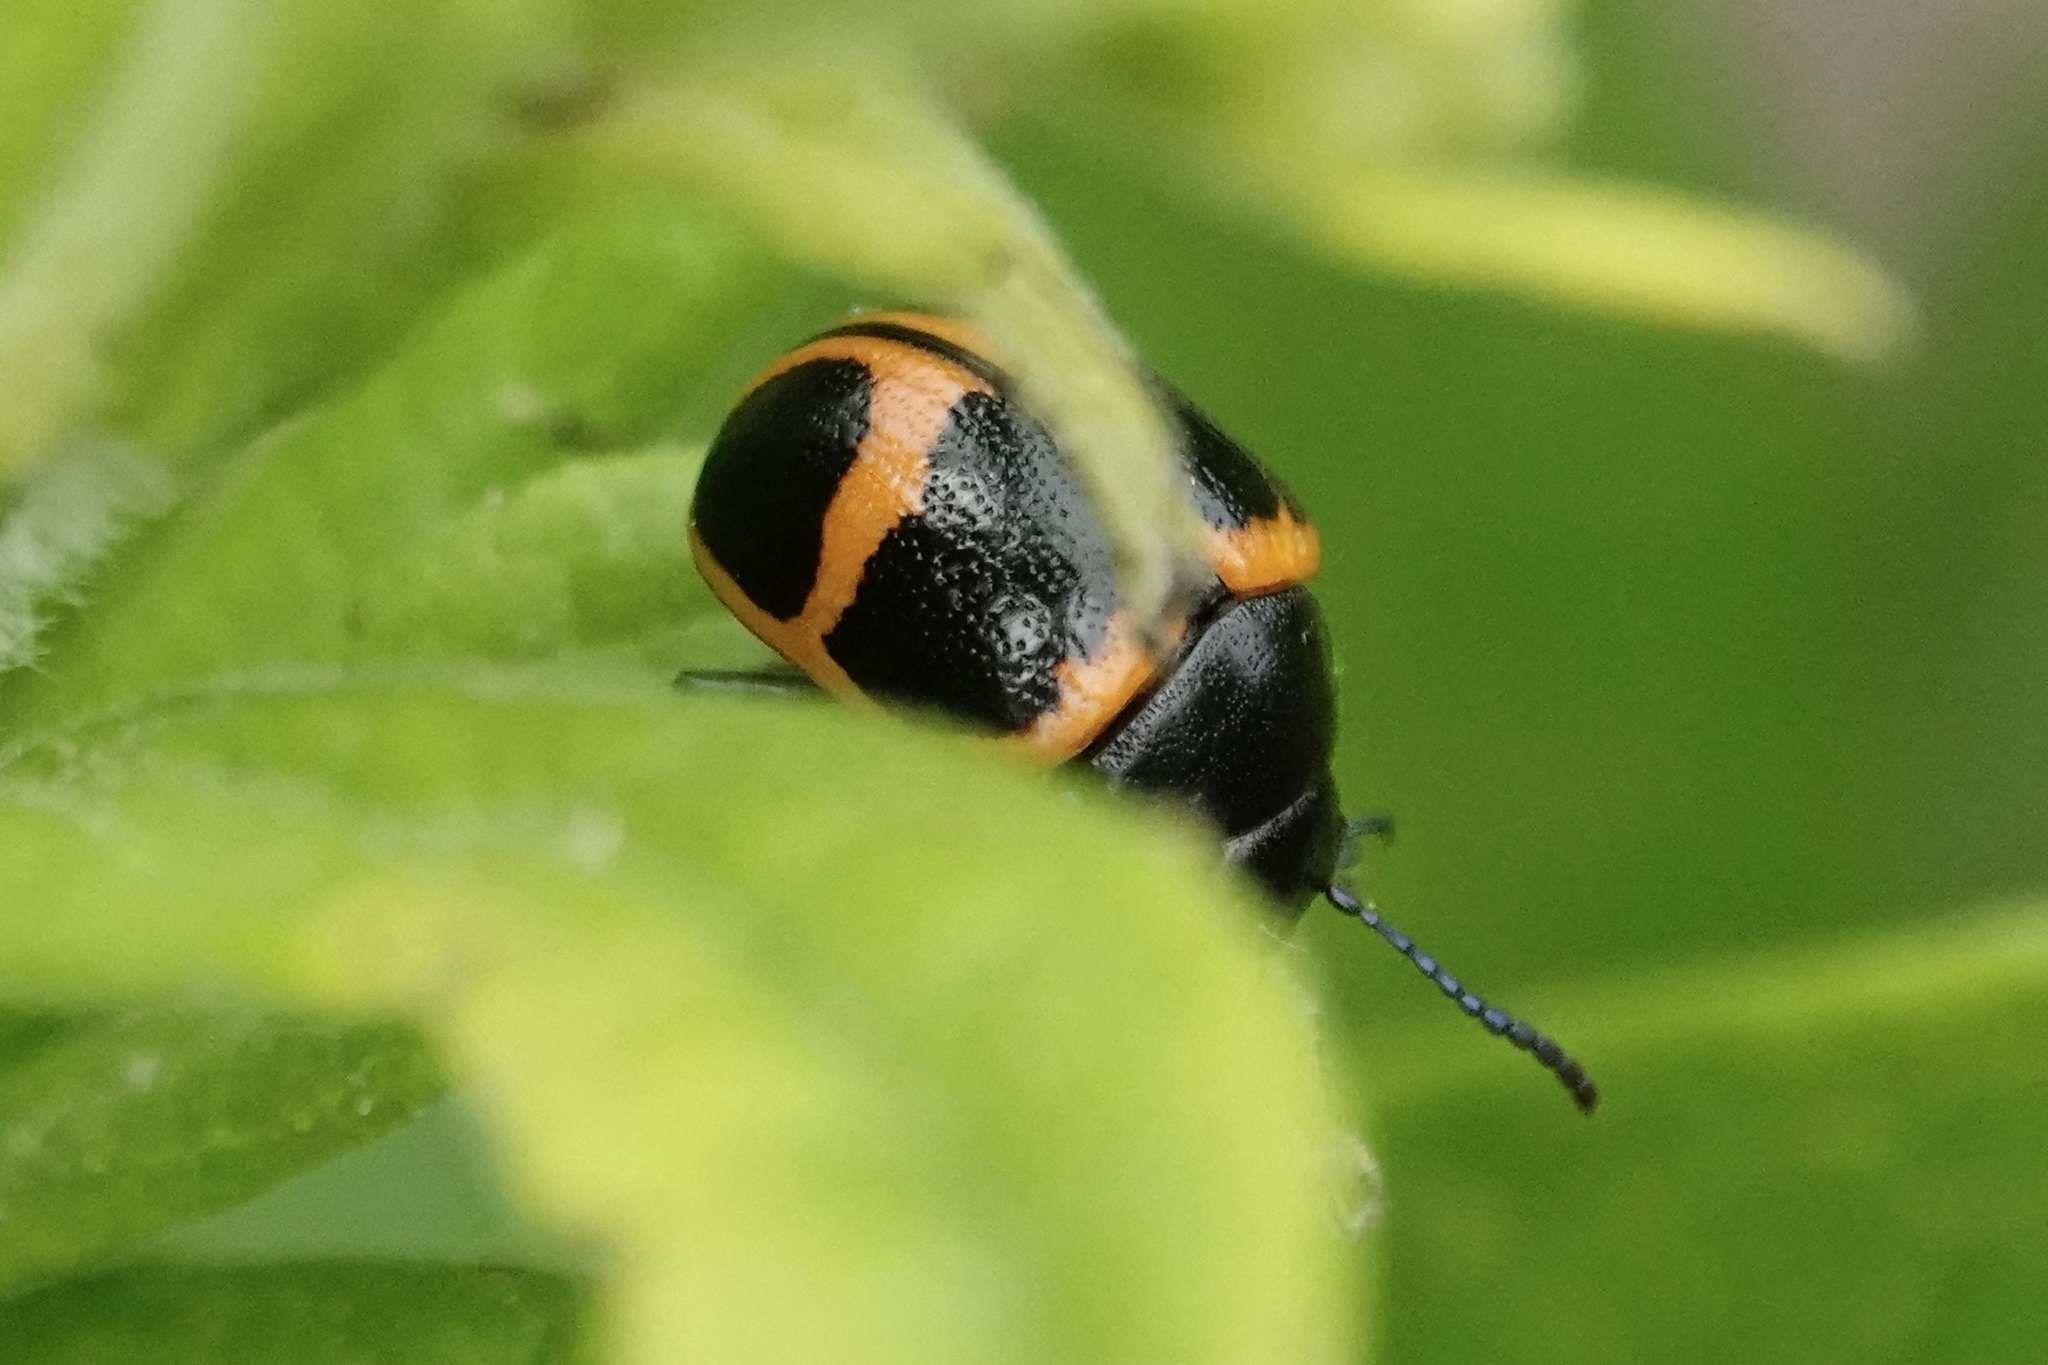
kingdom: Animalia
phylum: Arthropoda
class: Insecta
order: Coleoptera
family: Chrysomelidae
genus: Labidomera
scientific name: Labidomera clivicollis
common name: Swamp milkweed leaf beetle
